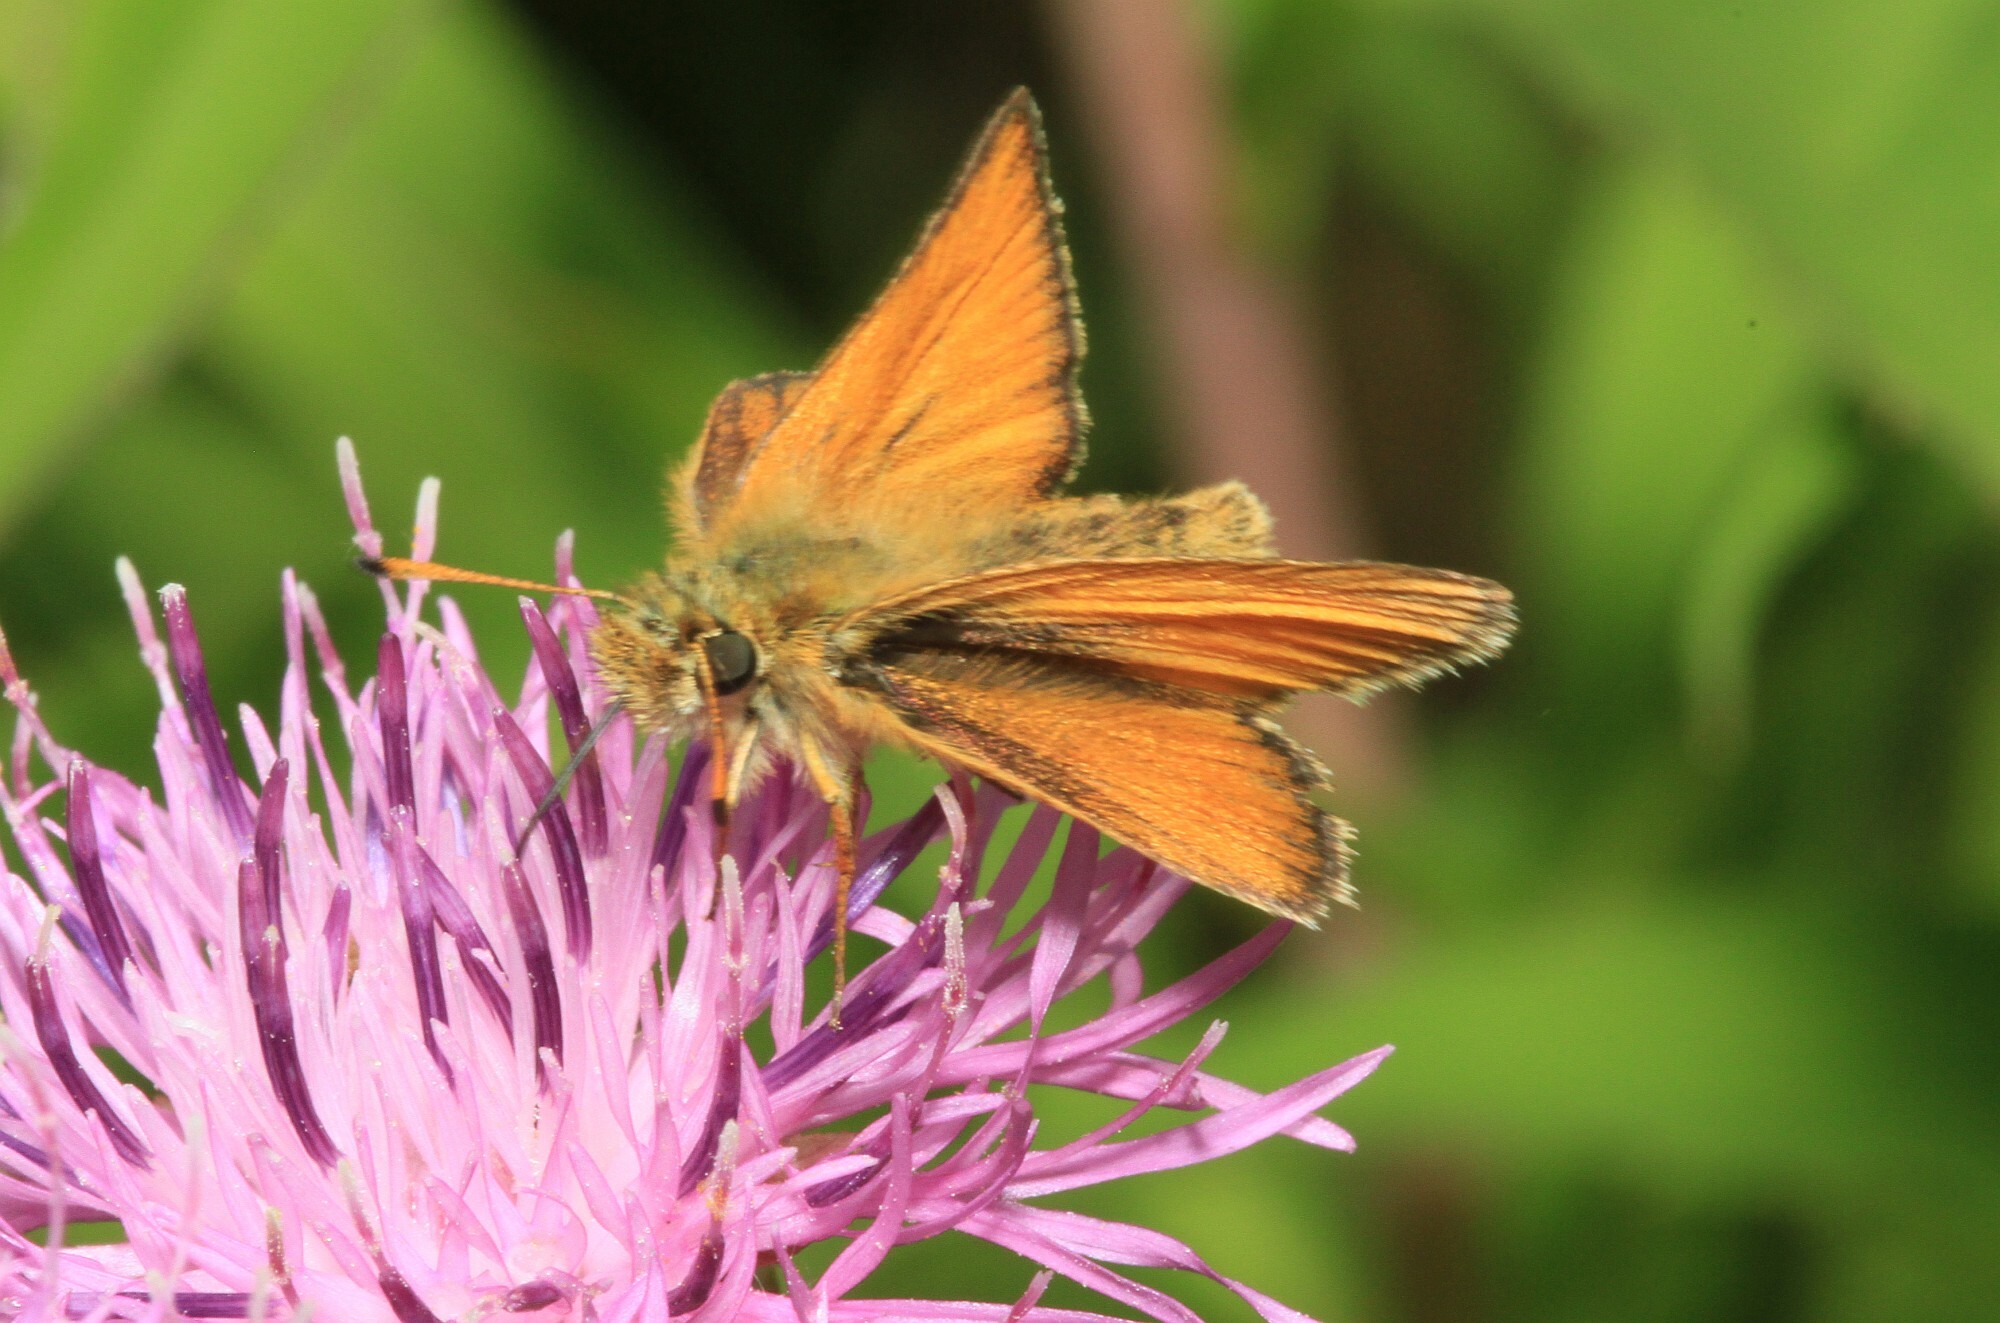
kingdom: Animalia
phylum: Arthropoda
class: Insecta
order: Lepidoptera
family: Hesperiidae
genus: Thymelicus
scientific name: Thymelicus lineola
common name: Essex skipper
